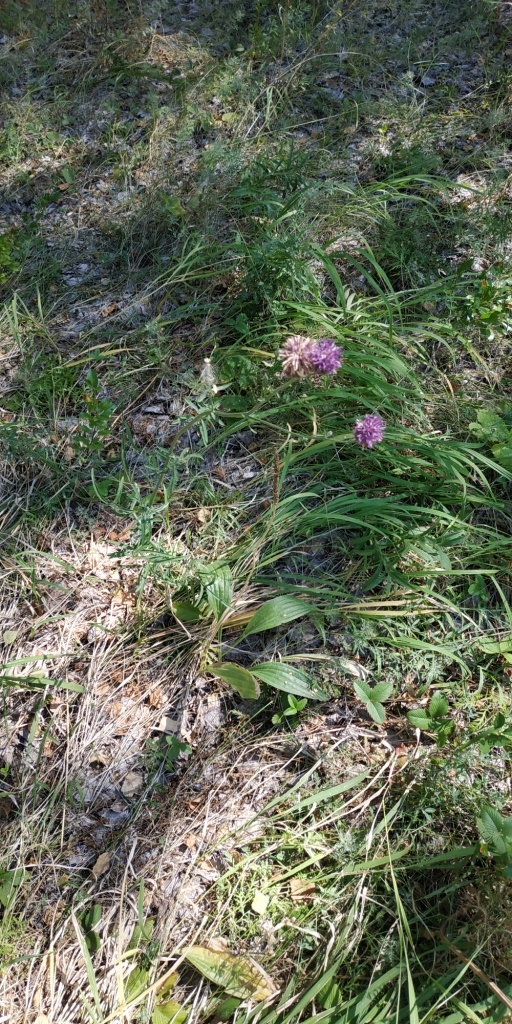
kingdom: Plantae
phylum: Tracheophyta
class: Magnoliopsida
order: Asterales
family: Asteraceae
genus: Centaurea
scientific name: Centaurea scabiosa
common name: Greater knapweed
